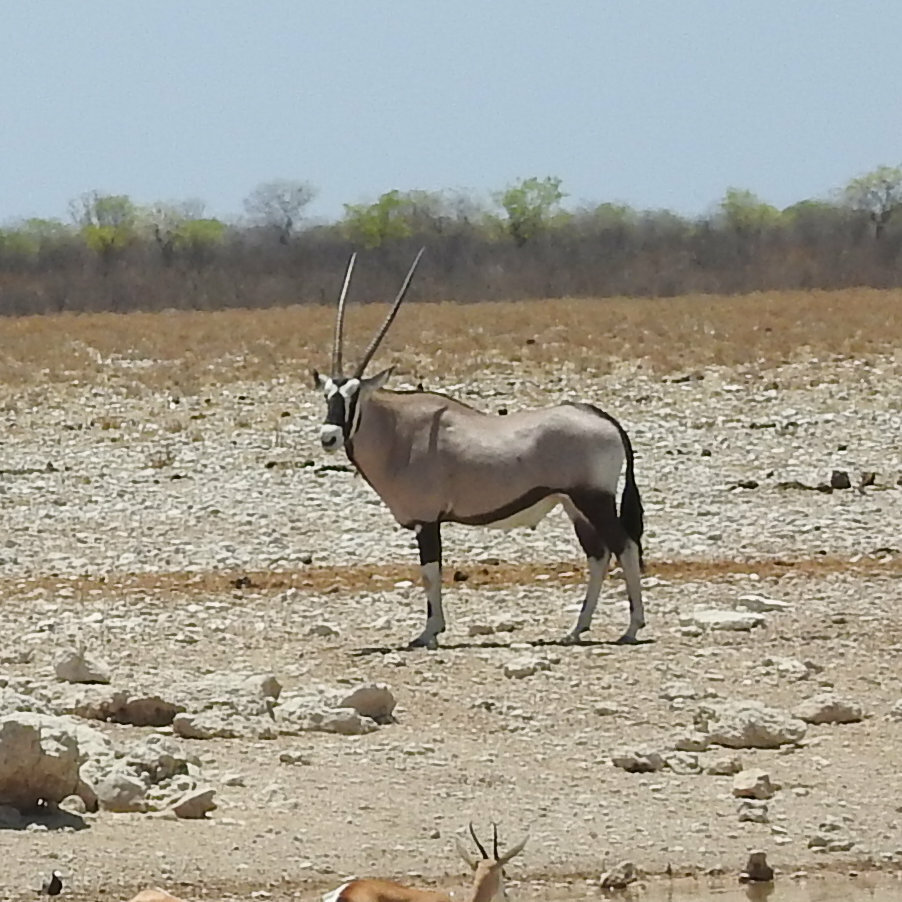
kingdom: Animalia
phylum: Chordata
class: Mammalia
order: Artiodactyla
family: Bovidae
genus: Oryx
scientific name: Oryx gazella
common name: Gemsbok
